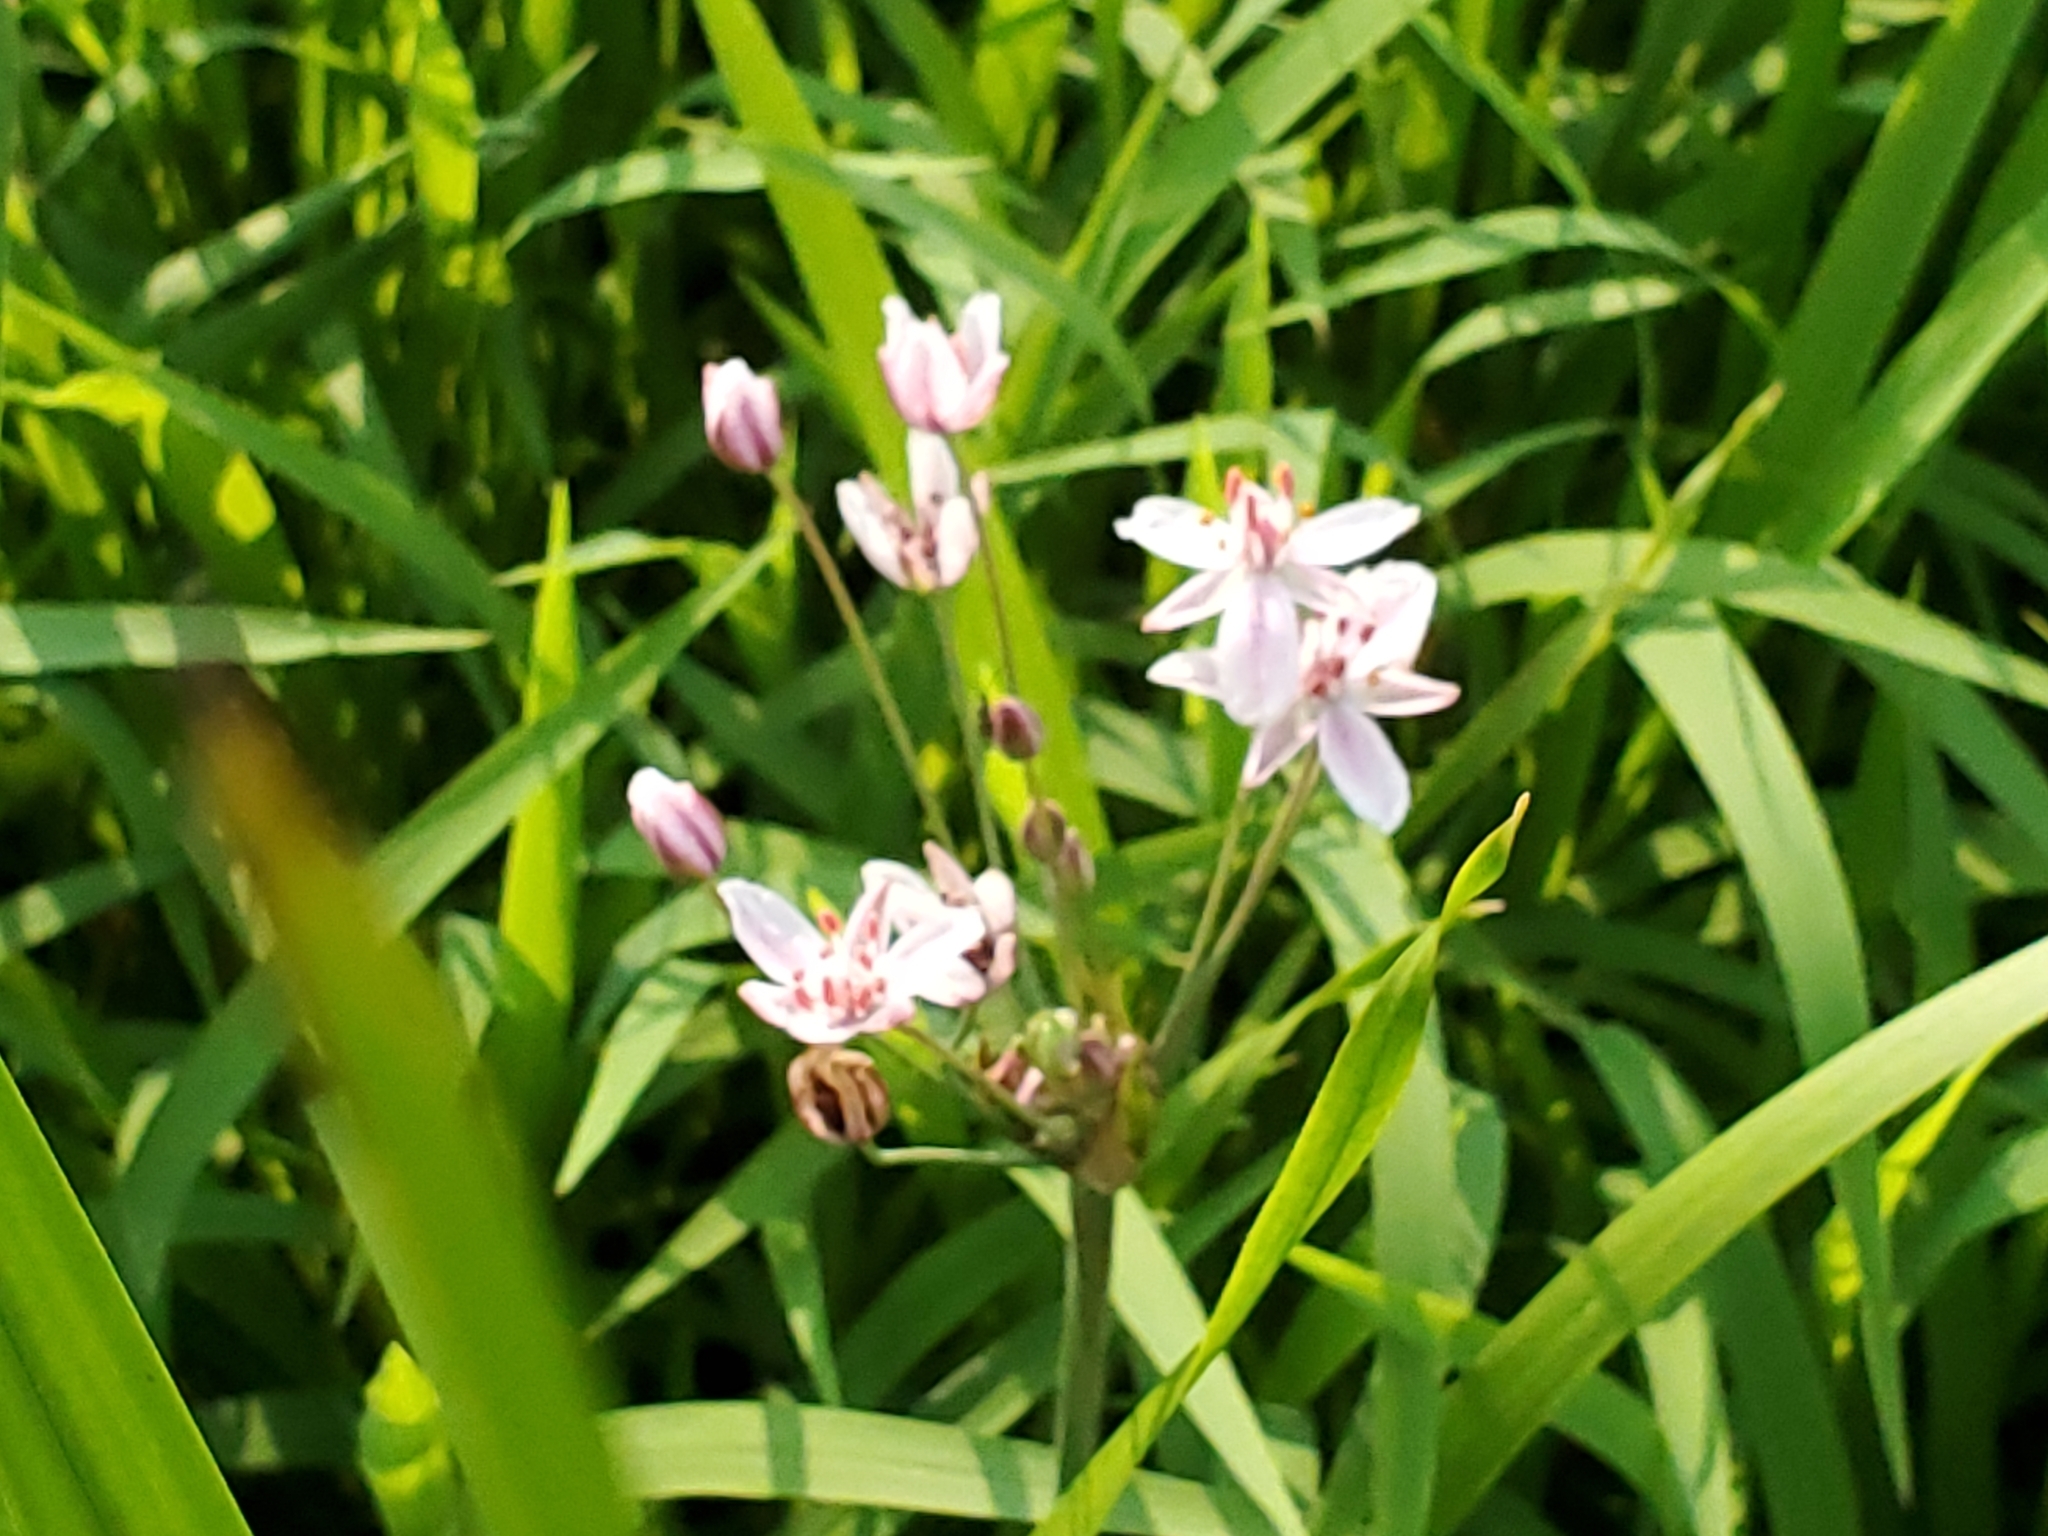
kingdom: Plantae
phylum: Tracheophyta
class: Liliopsida
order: Alismatales
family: Butomaceae
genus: Butomus
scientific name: Butomus umbellatus
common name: Flowering-rush
